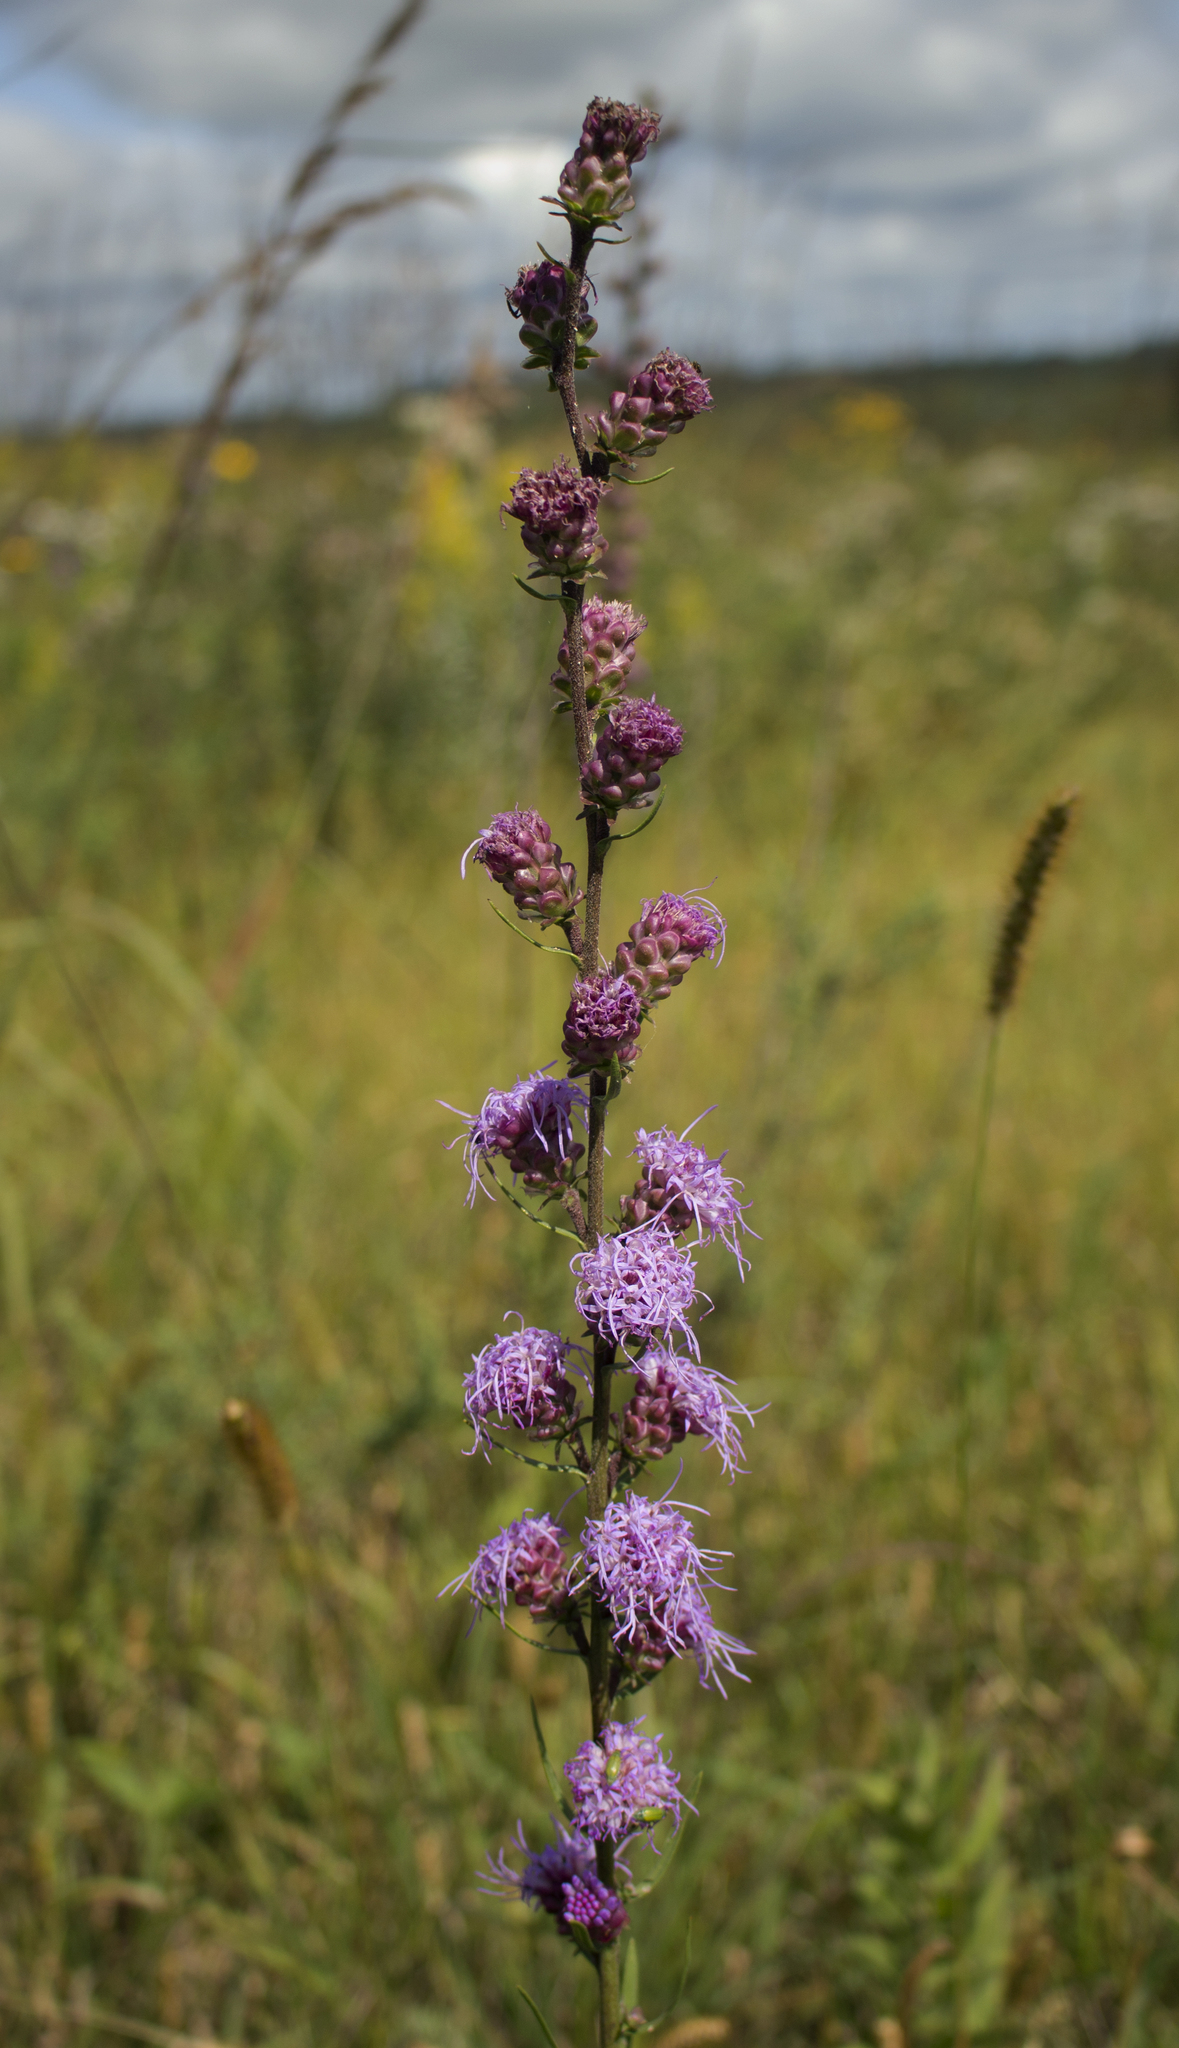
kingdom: Plantae
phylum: Tracheophyta
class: Magnoliopsida
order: Asterales
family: Asteraceae
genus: Liatris
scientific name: Liatris aspera
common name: Lacerate blazing-star
